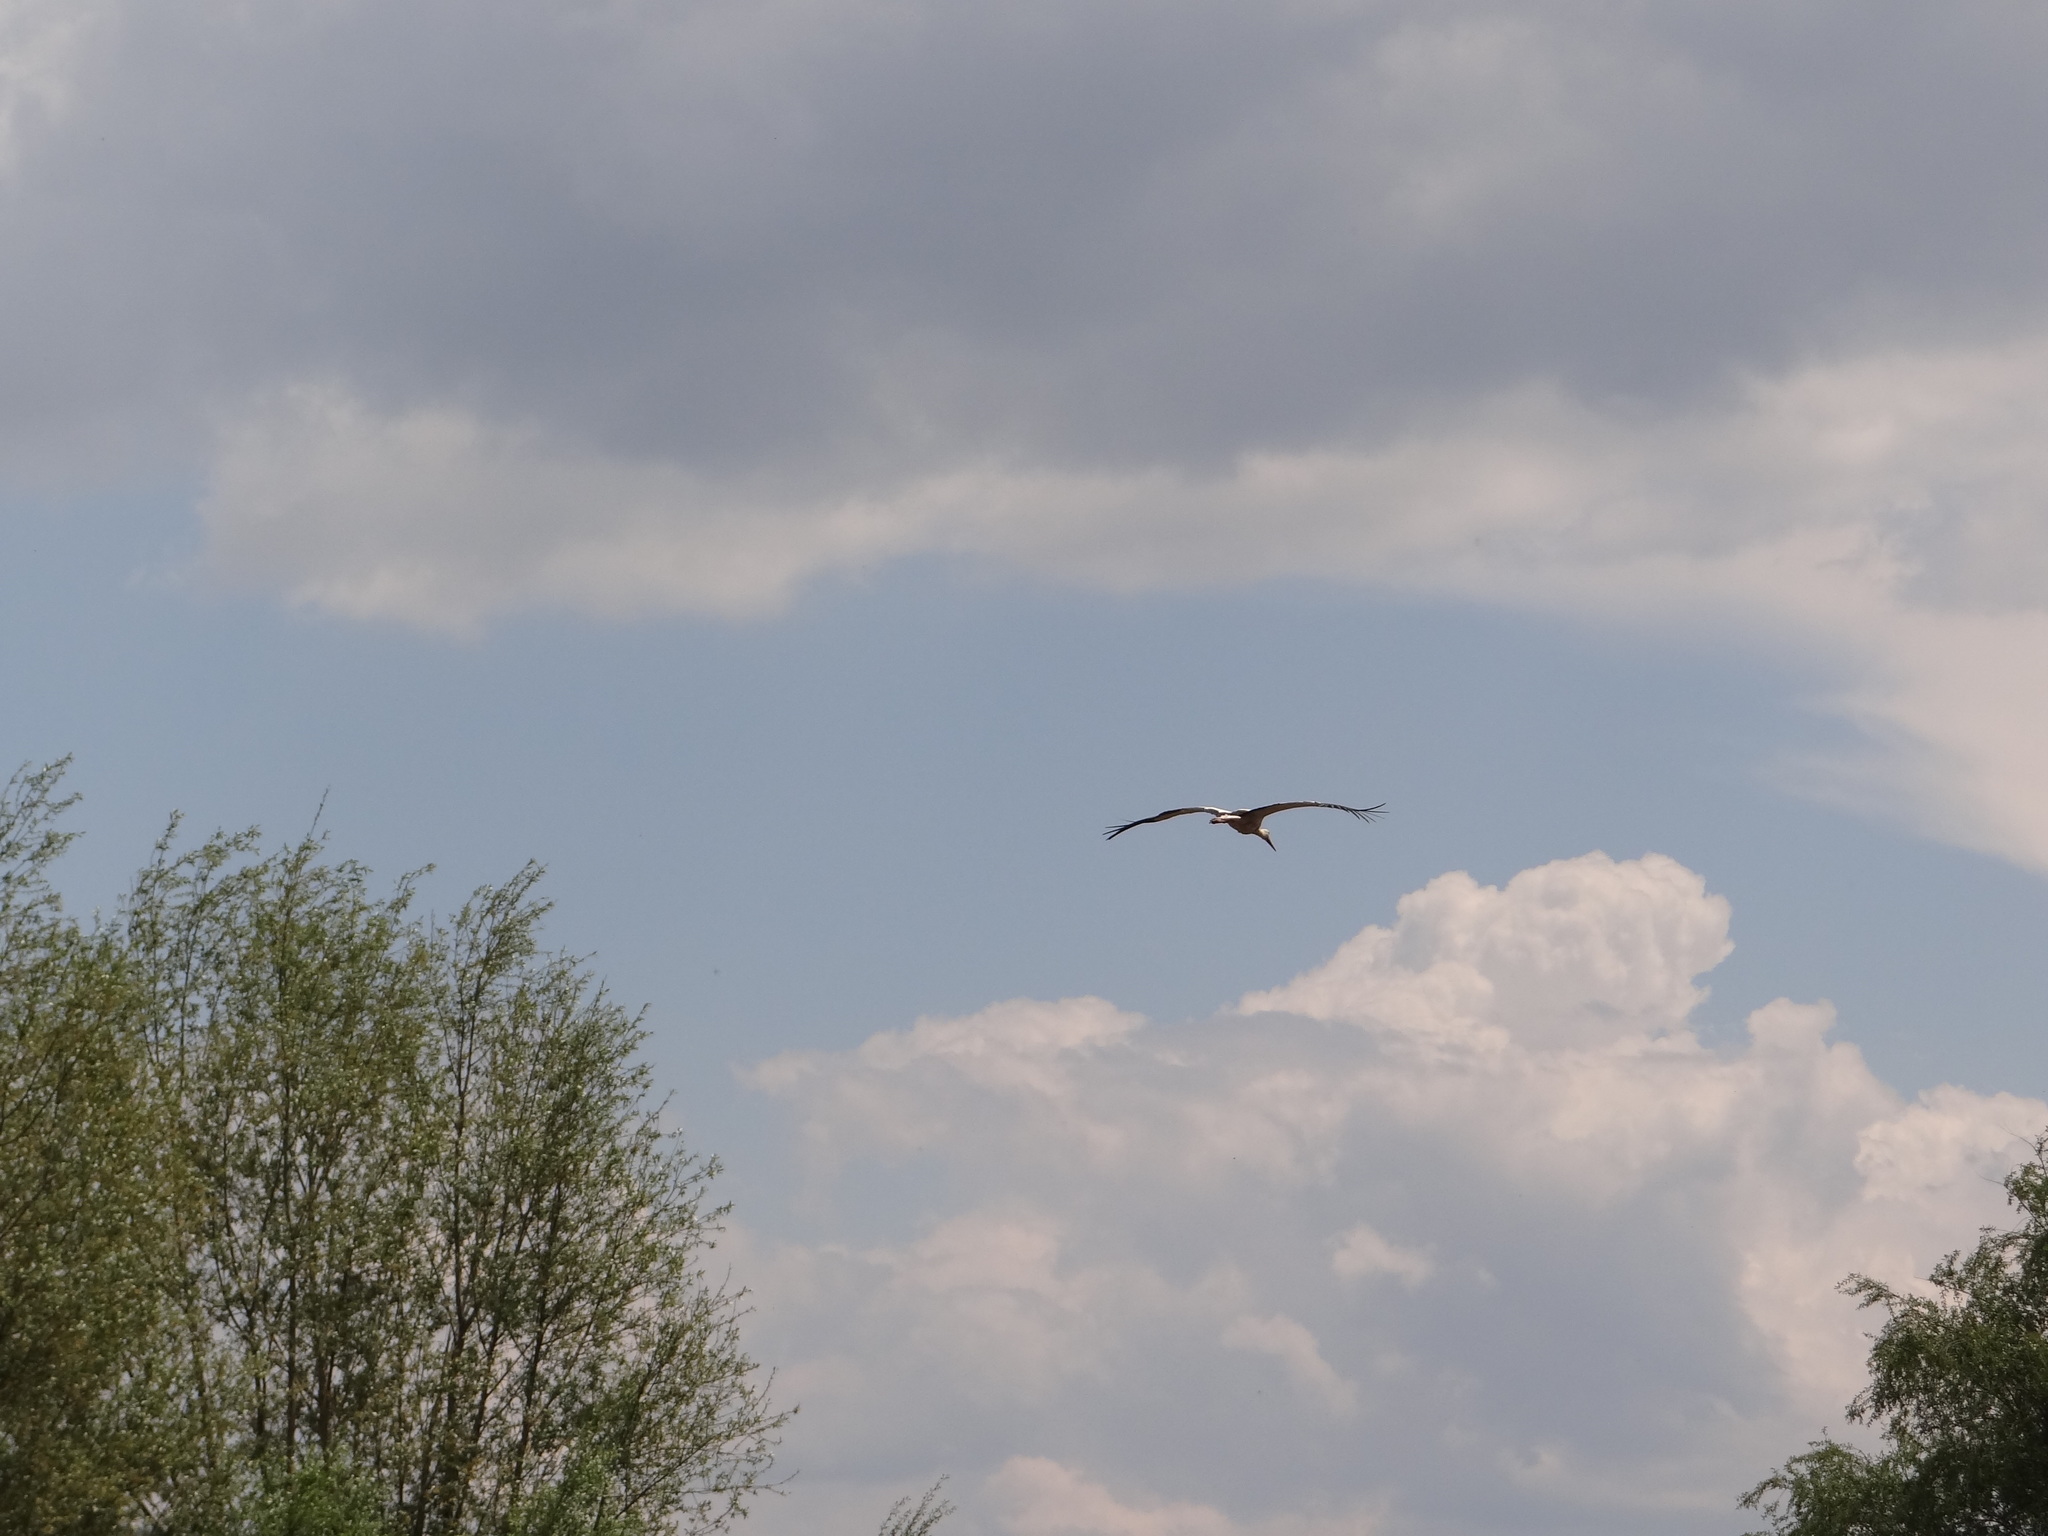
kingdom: Animalia
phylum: Chordata
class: Aves
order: Ciconiiformes
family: Ciconiidae
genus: Ciconia
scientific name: Ciconia ciconia
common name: White stork
